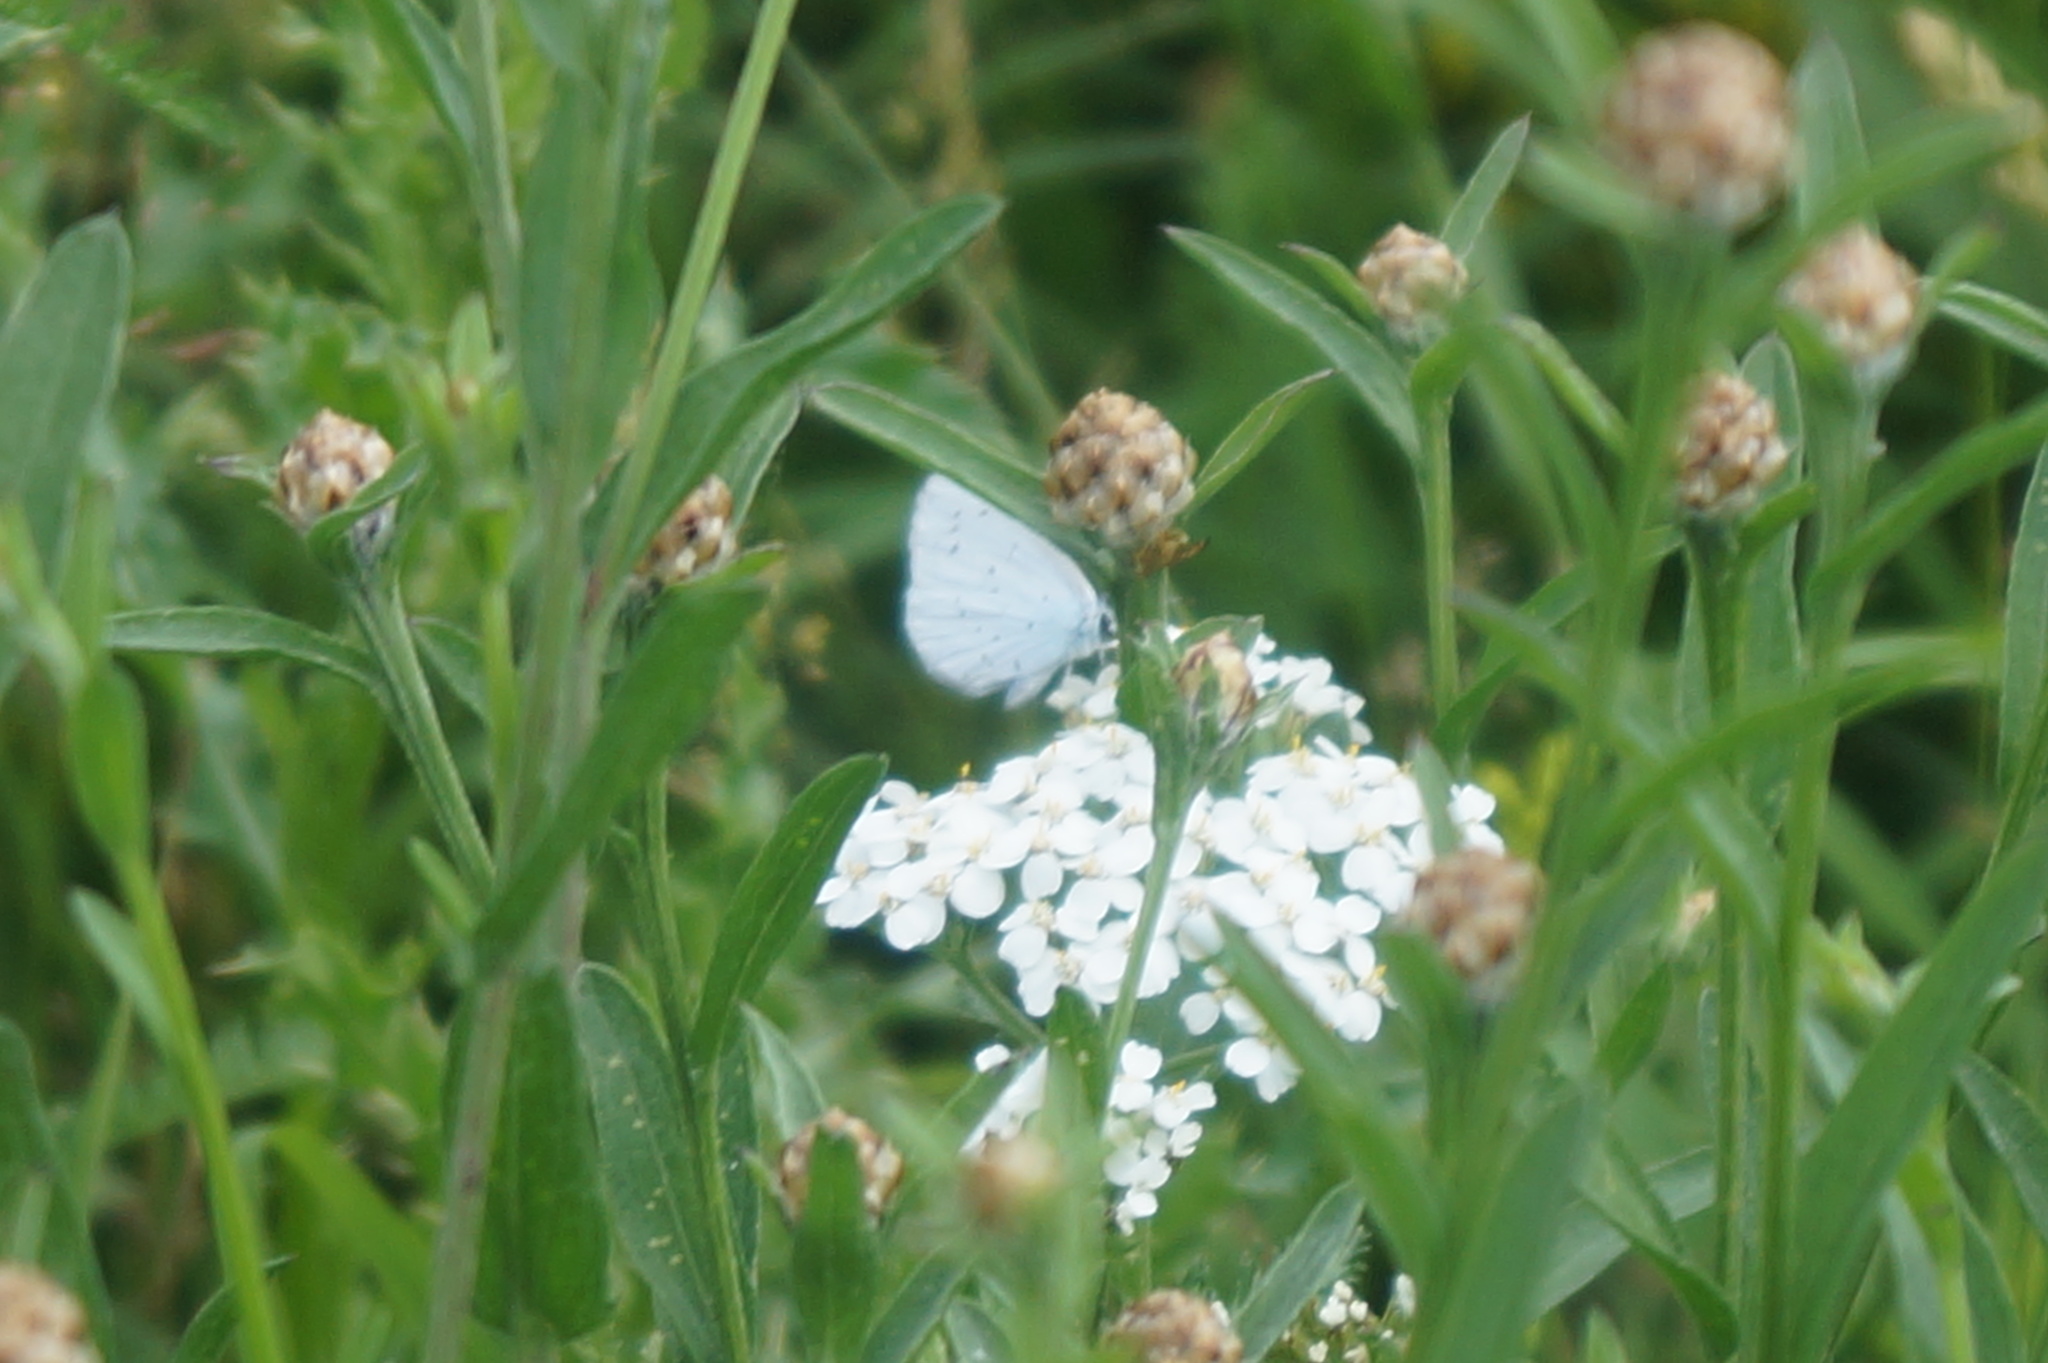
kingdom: Animalia
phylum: Arthropoda
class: Insecta
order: Lepidoptera
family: Lycaenidae
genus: Celastrina
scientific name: Celastrina argiolus
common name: Holly blue
